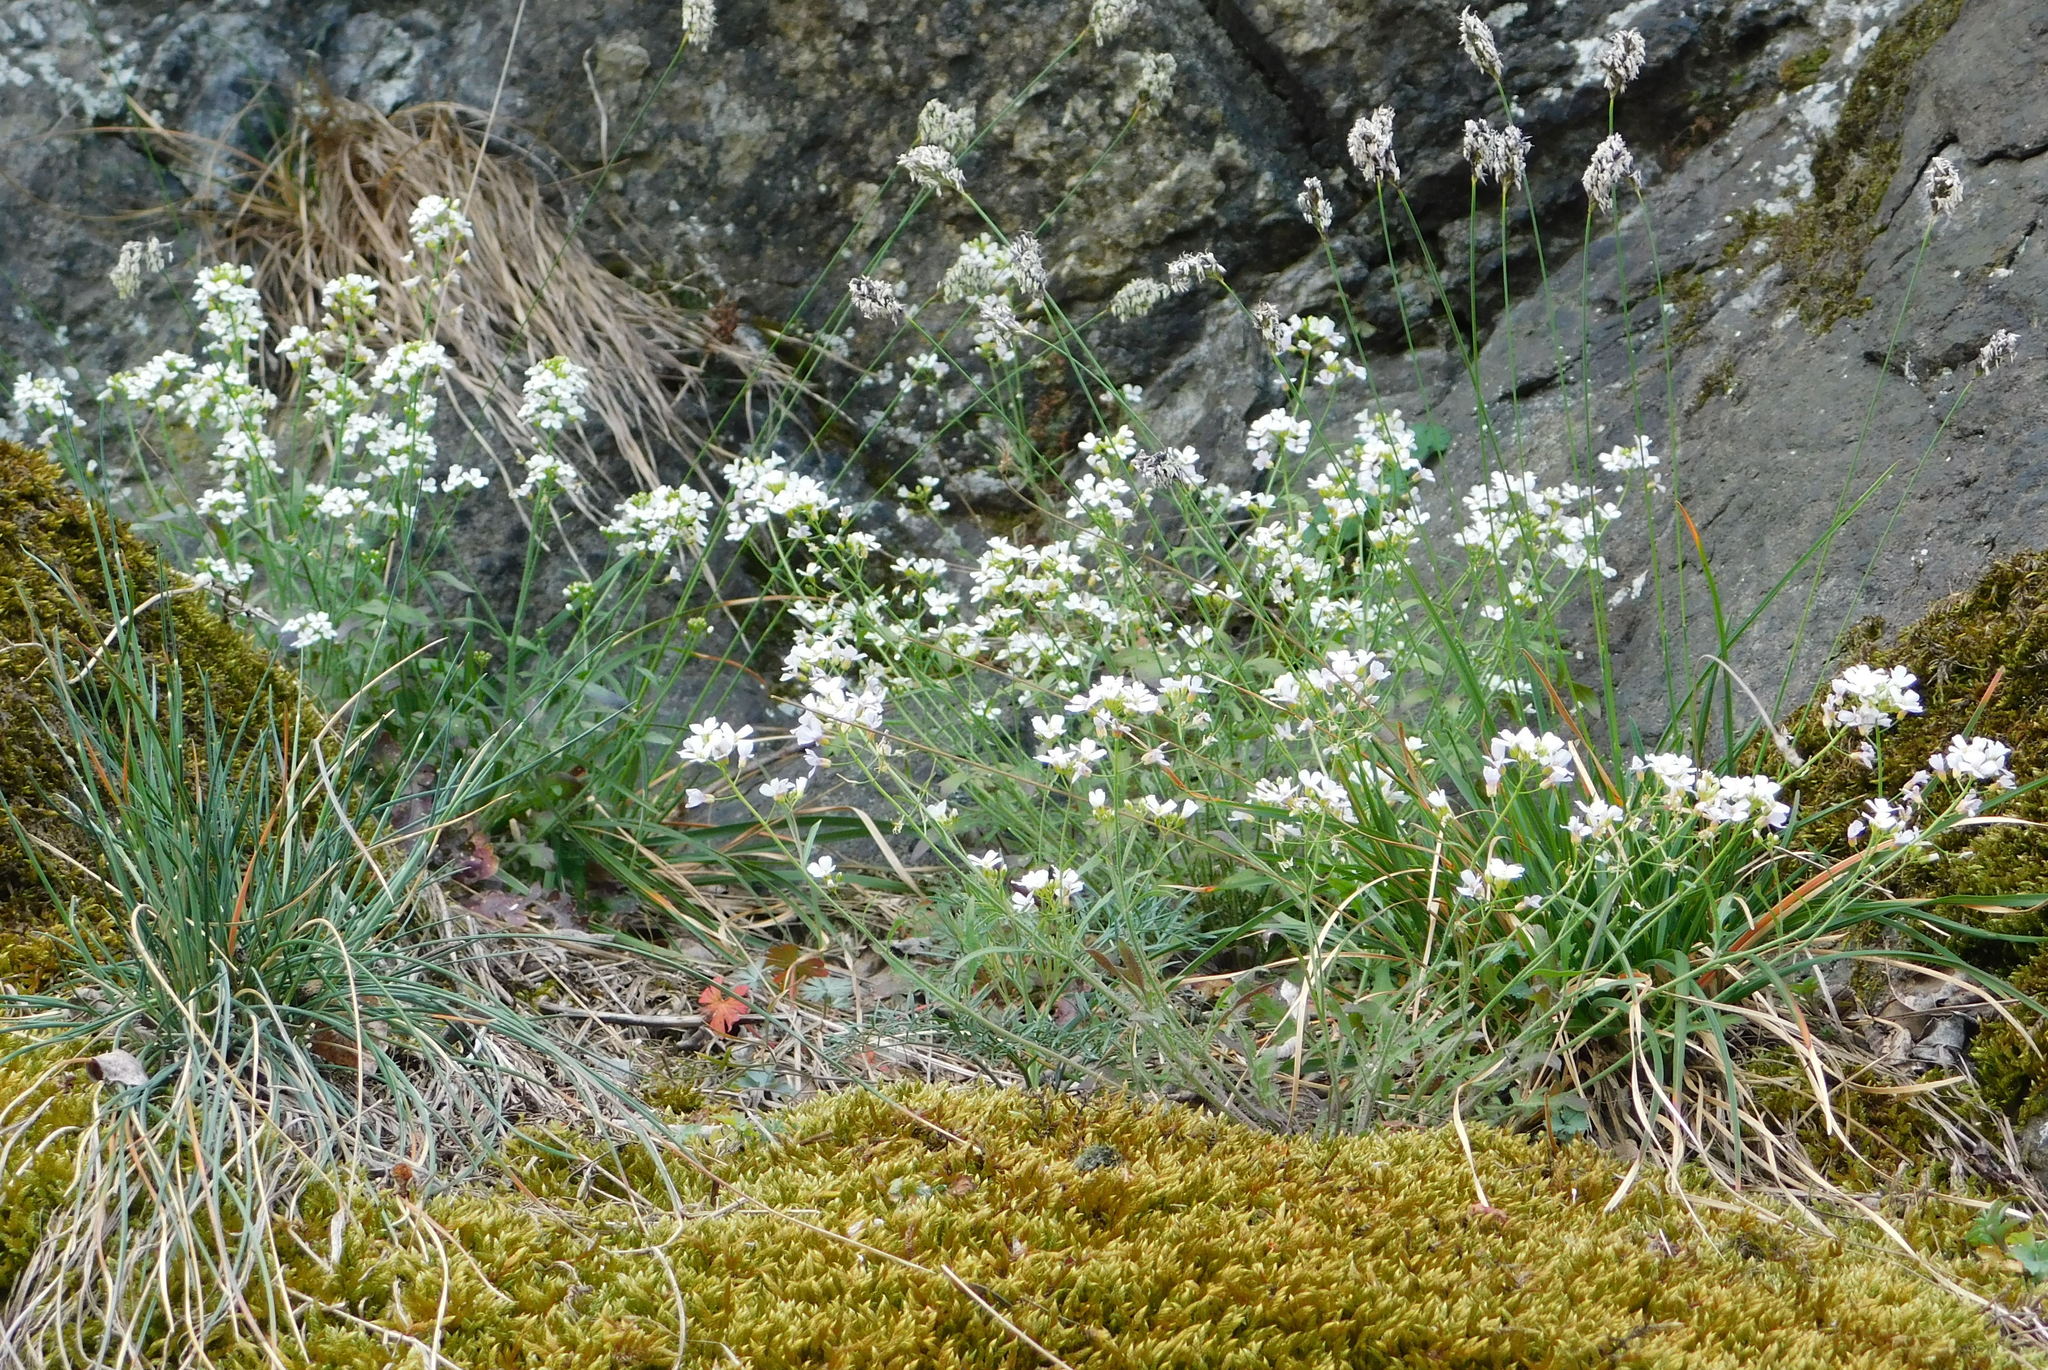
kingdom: Plantae
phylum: Tracheophyta
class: Magnoliopsida
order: Brassicales
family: Brassicaceae
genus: Arabidopsis
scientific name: Arabidopsis arenosa
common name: Sand rock-cress
